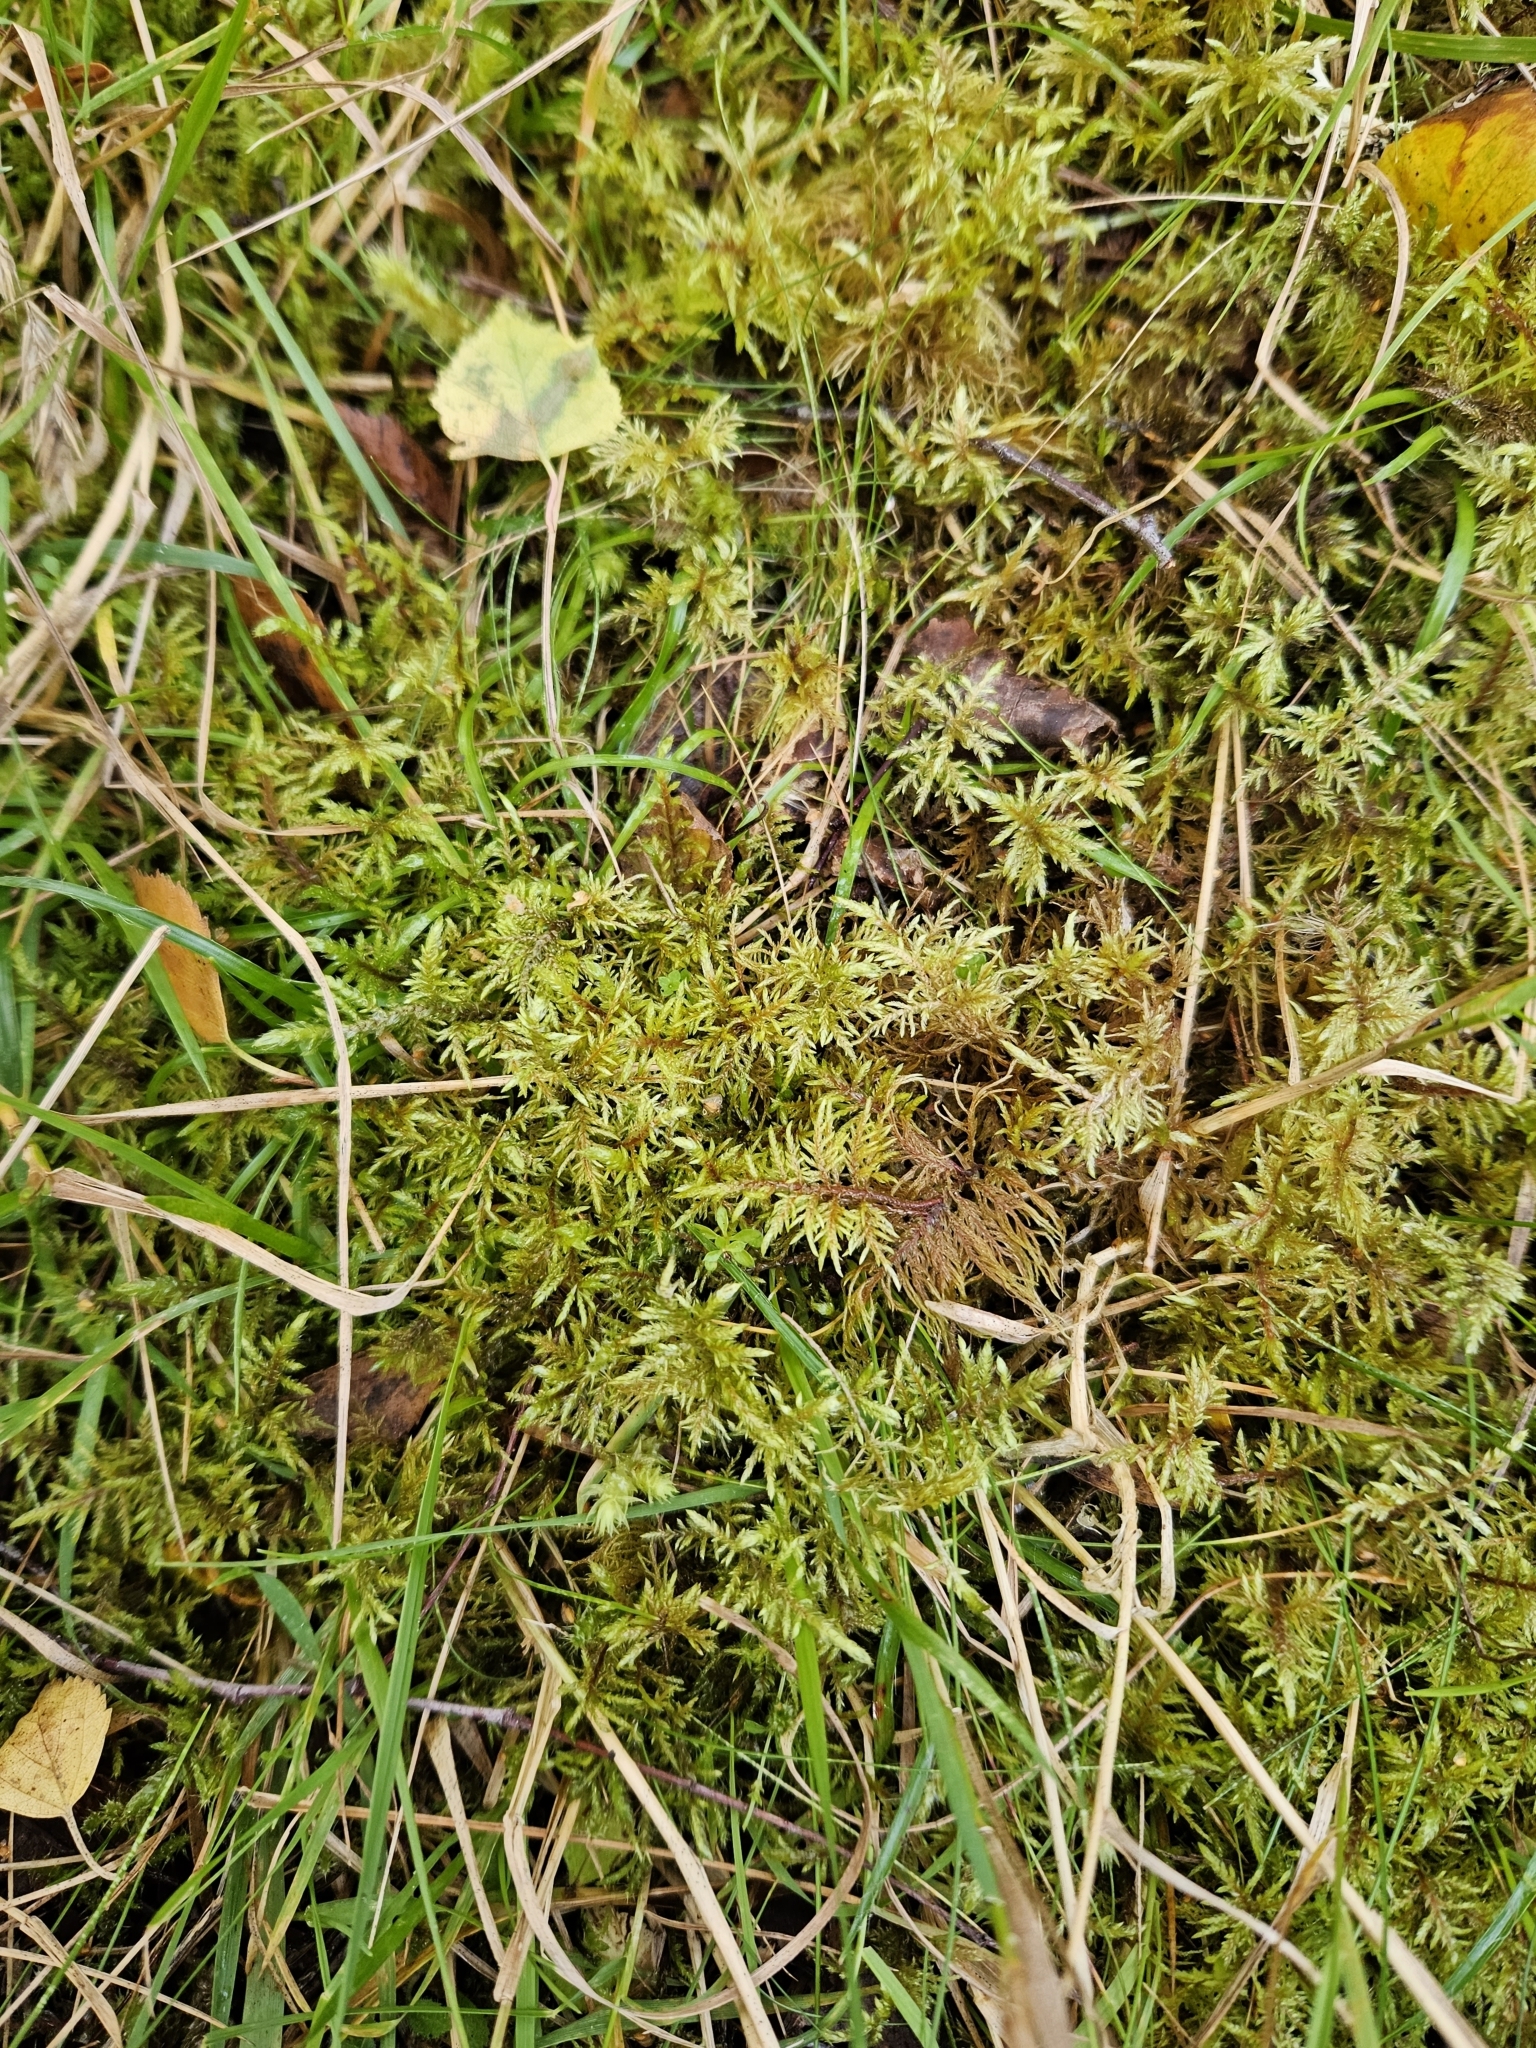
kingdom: Plantae
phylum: Bryophyta
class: Bryopsida
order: Hypnales
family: Hylocomiaceae
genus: Hylocomium
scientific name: Hylocomium splendens
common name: Stairstep moss
